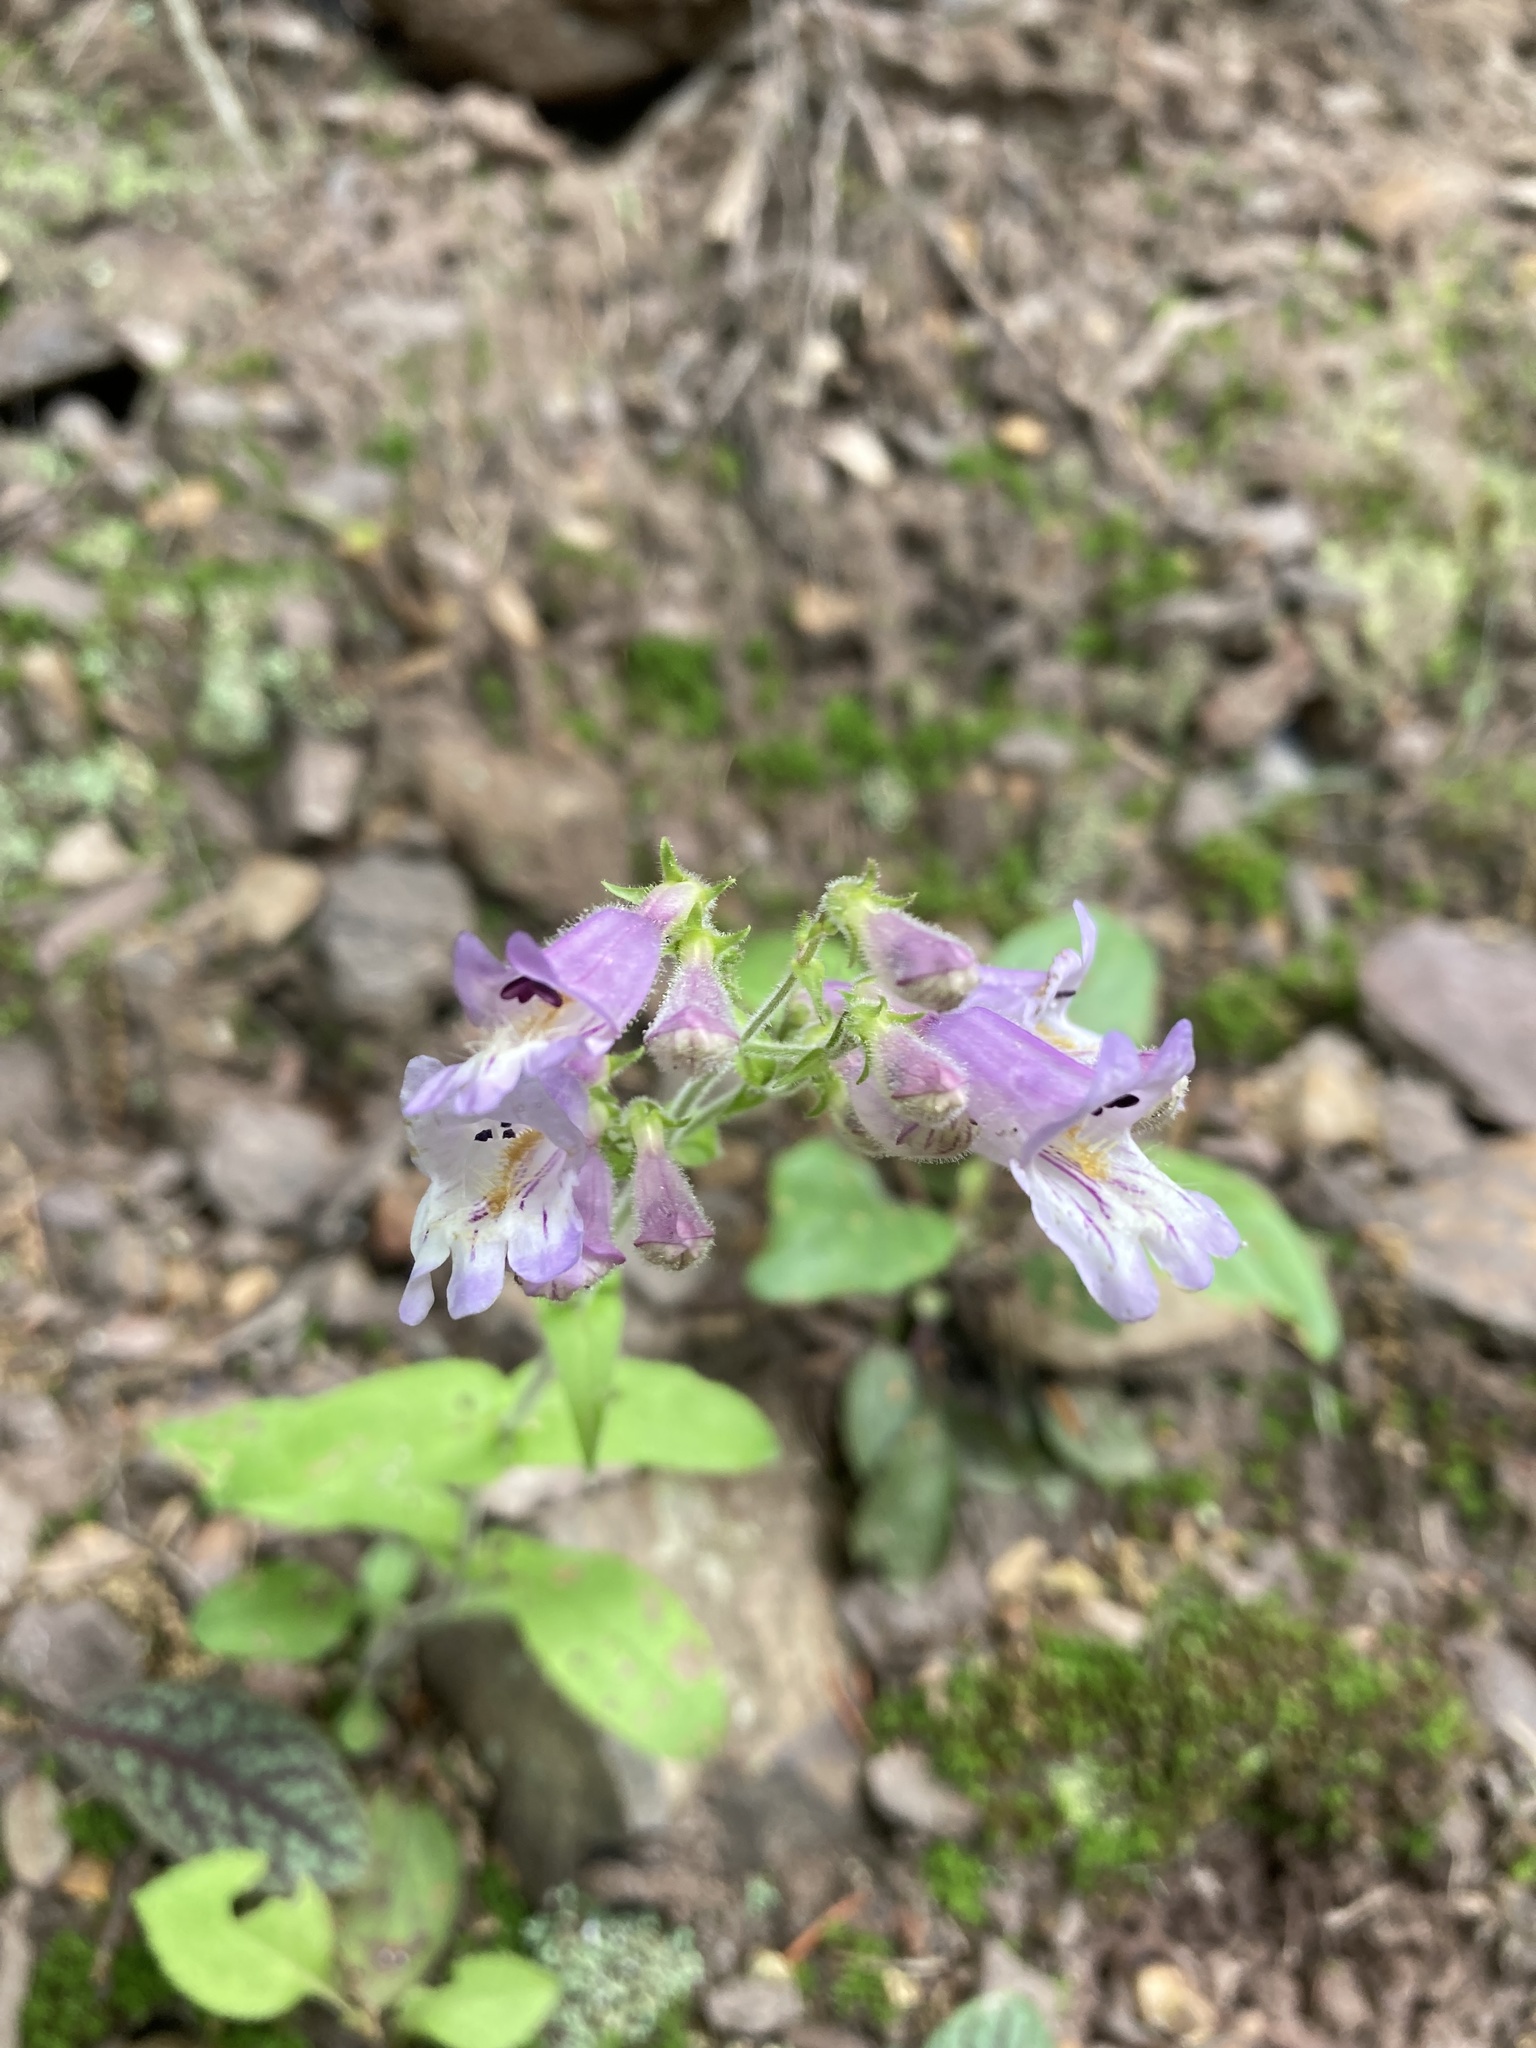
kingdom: Plantae
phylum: Tracheophyta
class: Magnoliopsida
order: Lamiales
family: Plantaginaceae
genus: Penstemon
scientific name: Penstemon canescens
